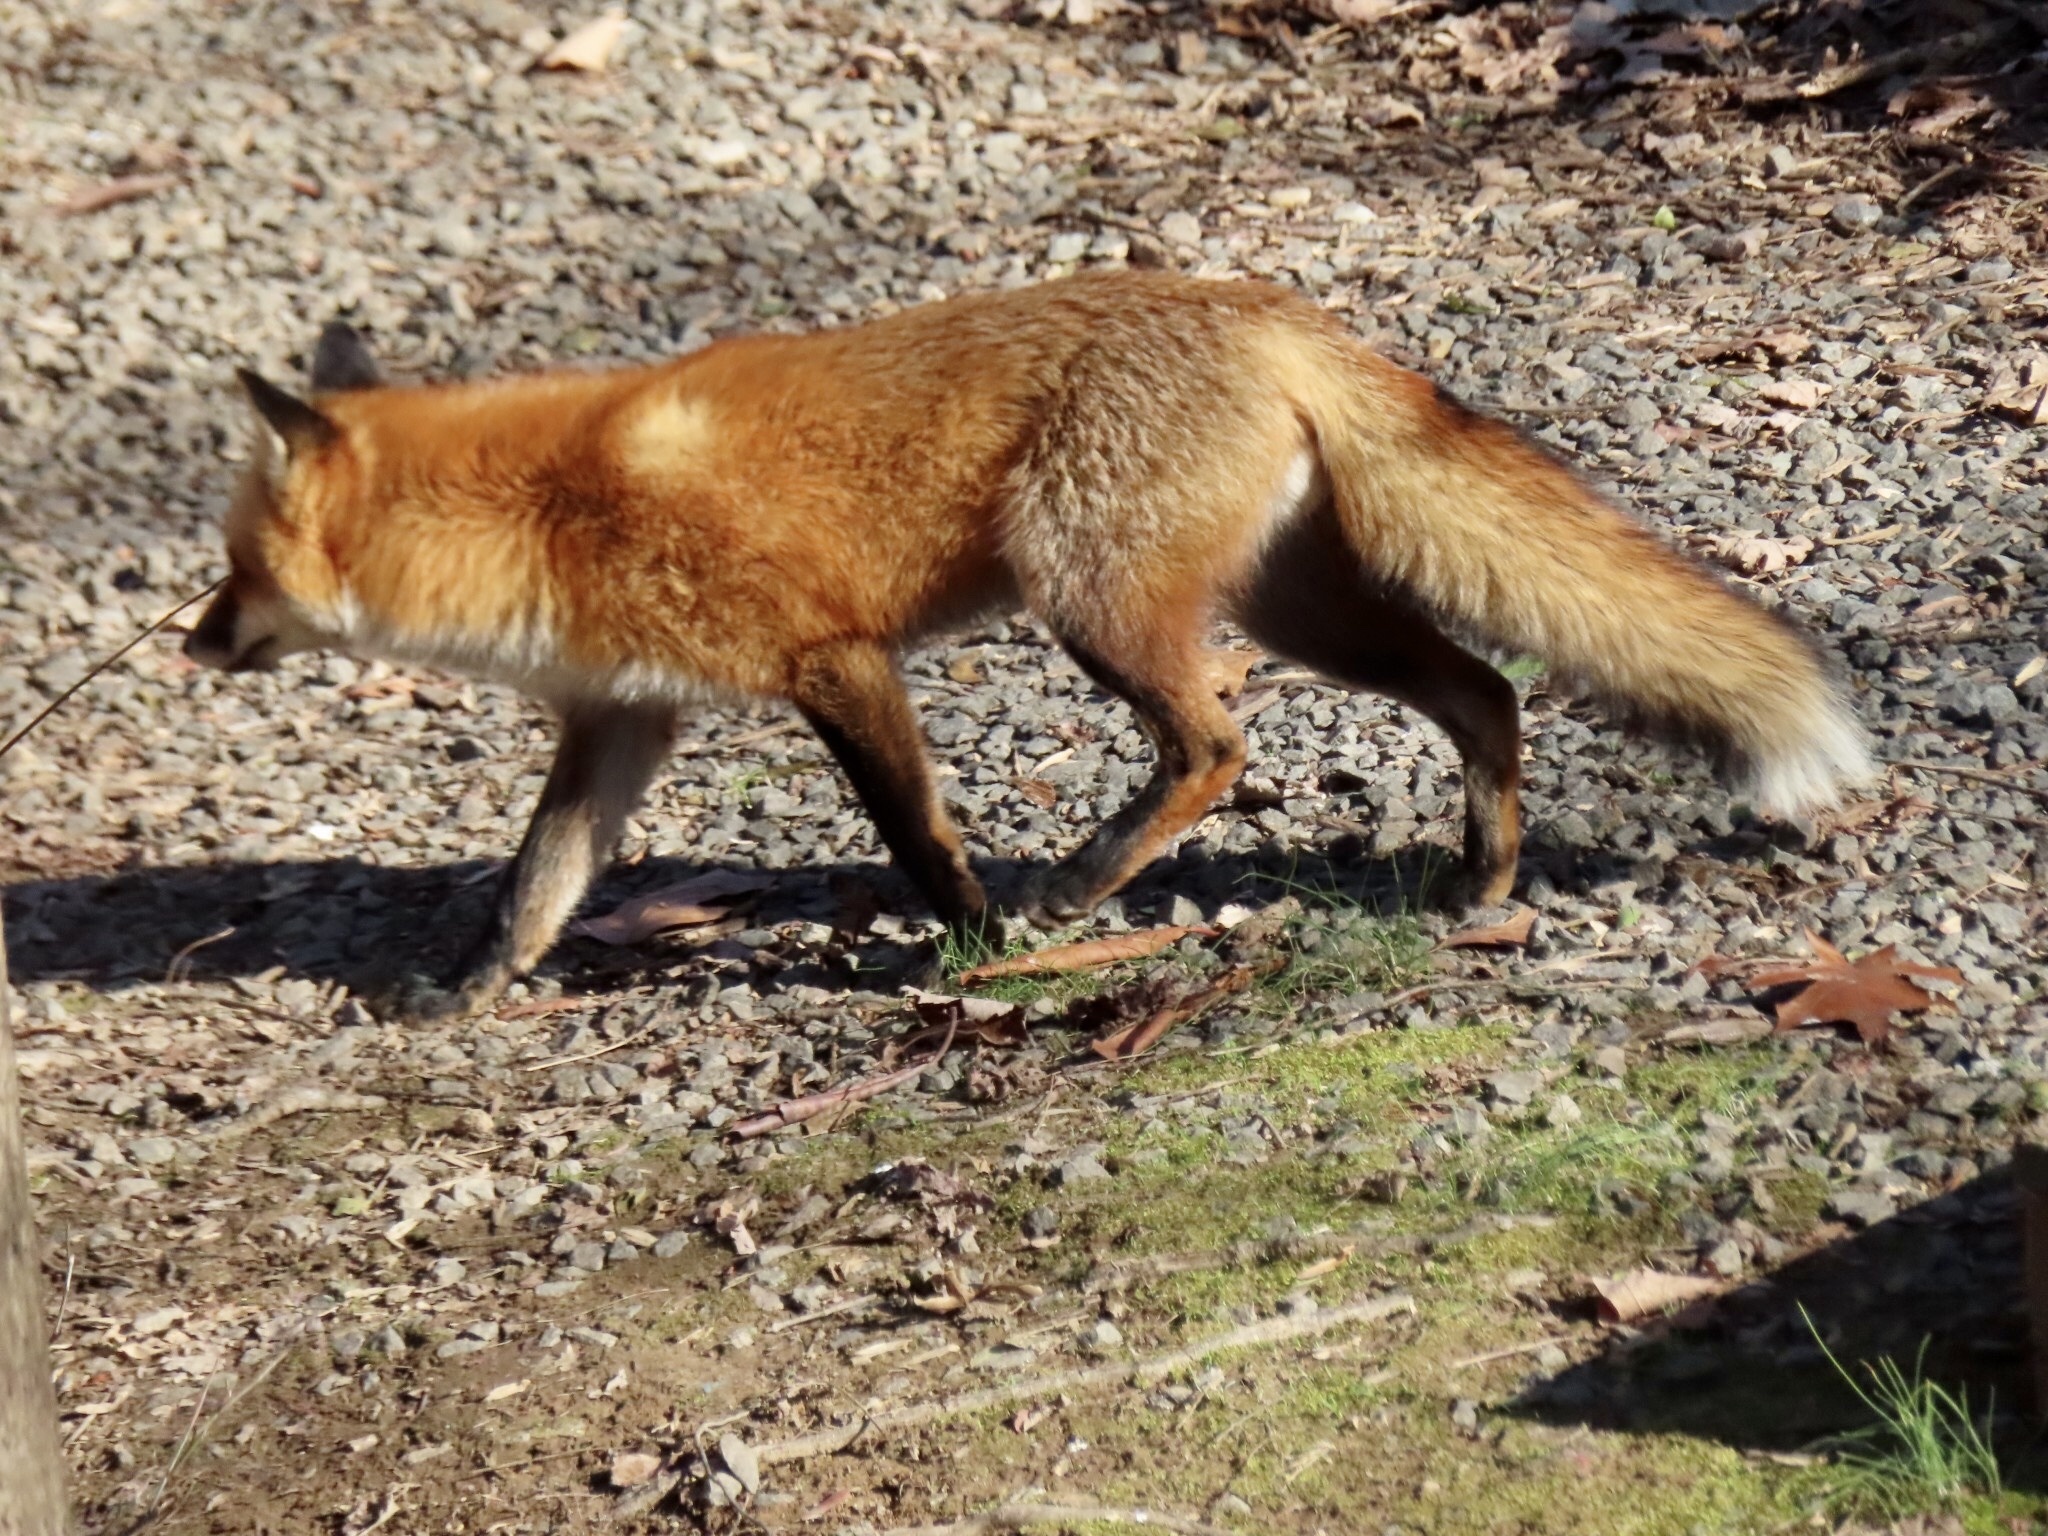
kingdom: Animalia
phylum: Chordata
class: Mammalia
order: Carnivora
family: Canidae
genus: Vulpes
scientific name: Vulpes vulpes
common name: Red fox
